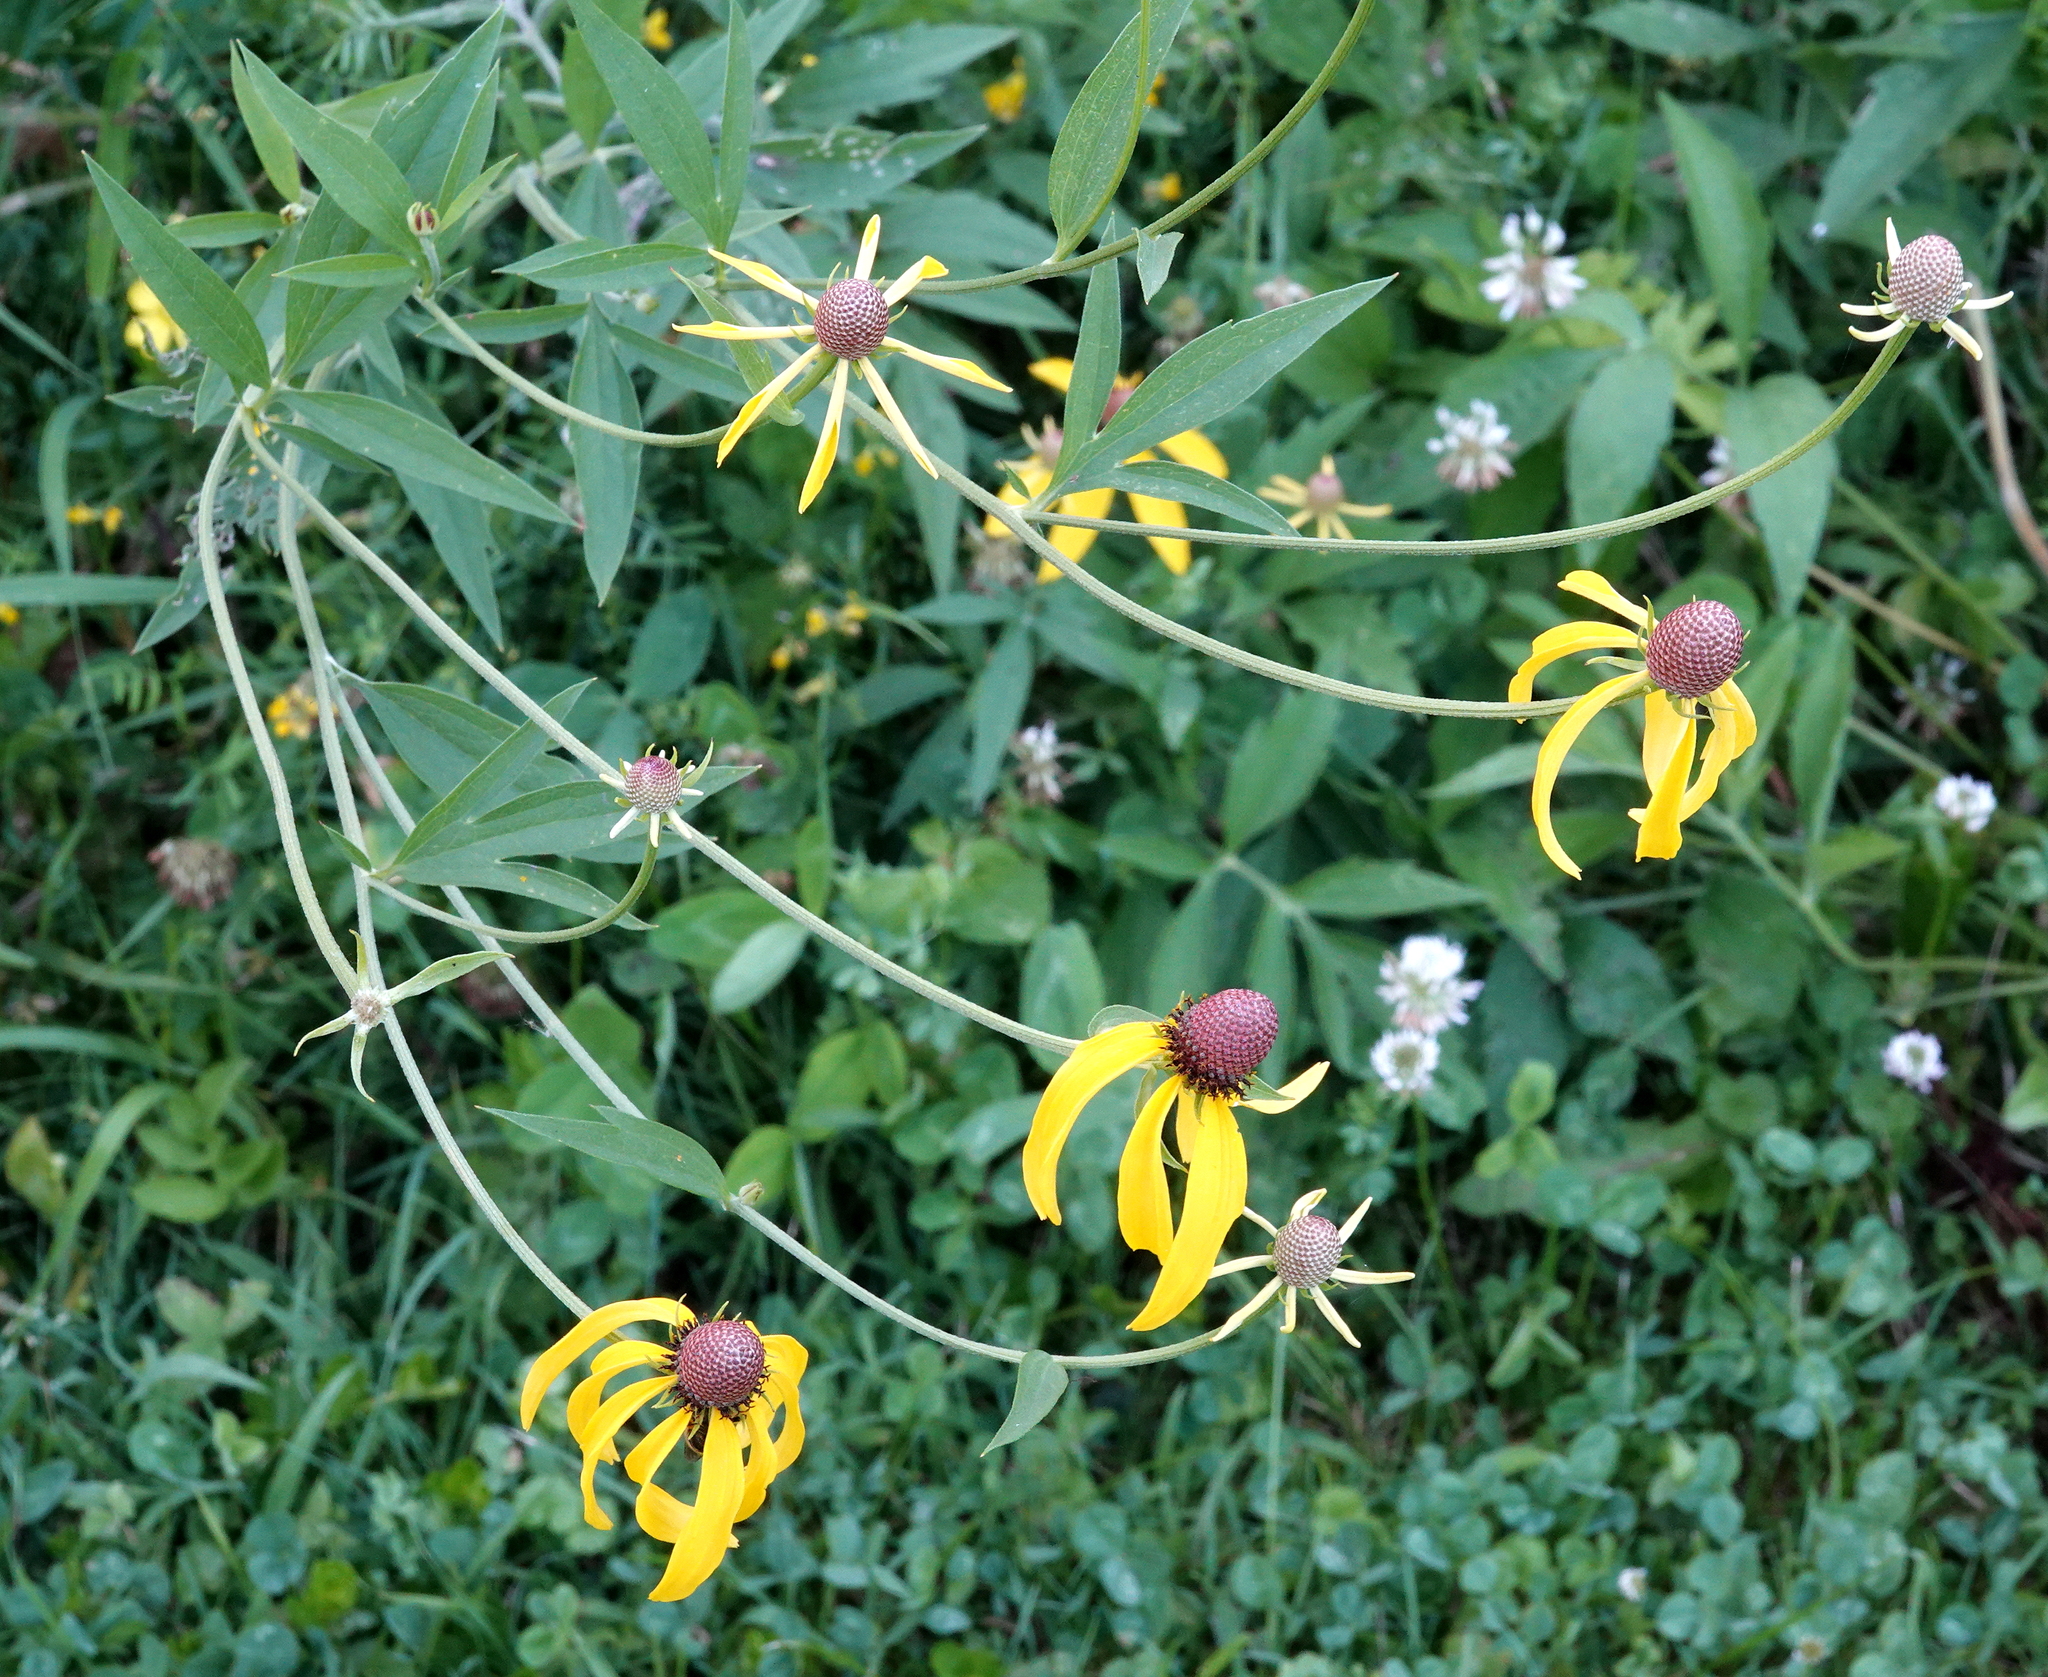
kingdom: Plantae
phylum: Tracheophyta
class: Magnoliopsida
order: Asterales
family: Asteraceae
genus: Ratibida
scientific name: Ratibida pinnata
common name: Drooping prairie-coneflower
